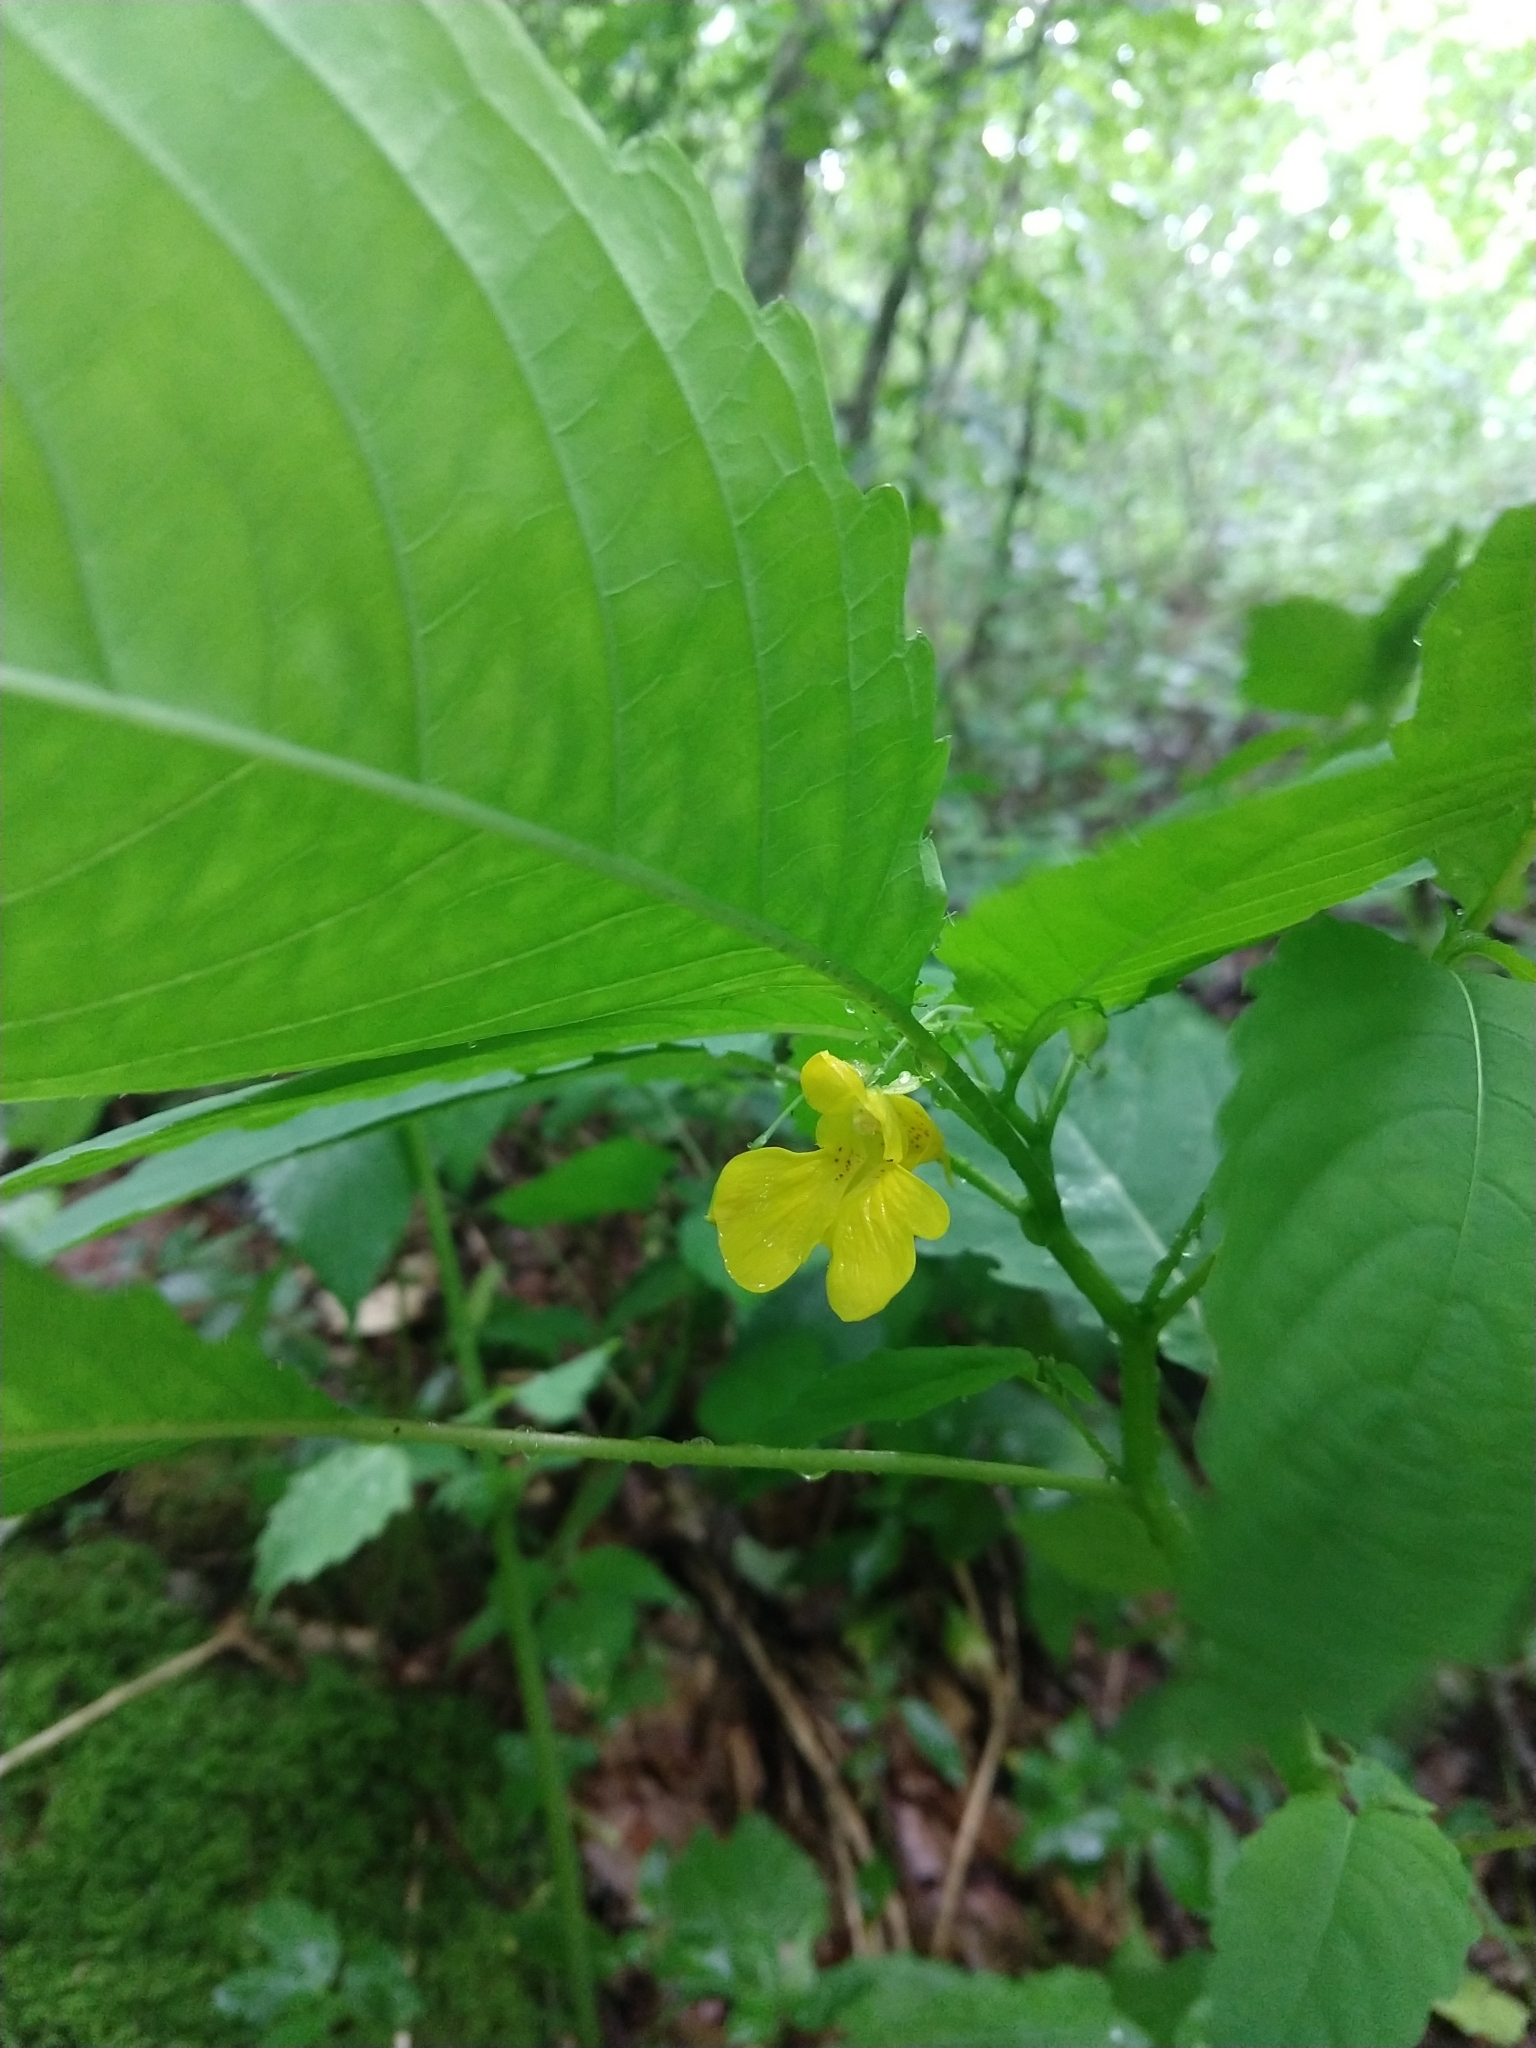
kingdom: Plantae
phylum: Tracheophyta
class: Magnoliopsida
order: Ericales
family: Balsaminaceae
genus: Impatiens
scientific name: Impatiens pallida
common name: Pale snapweed
